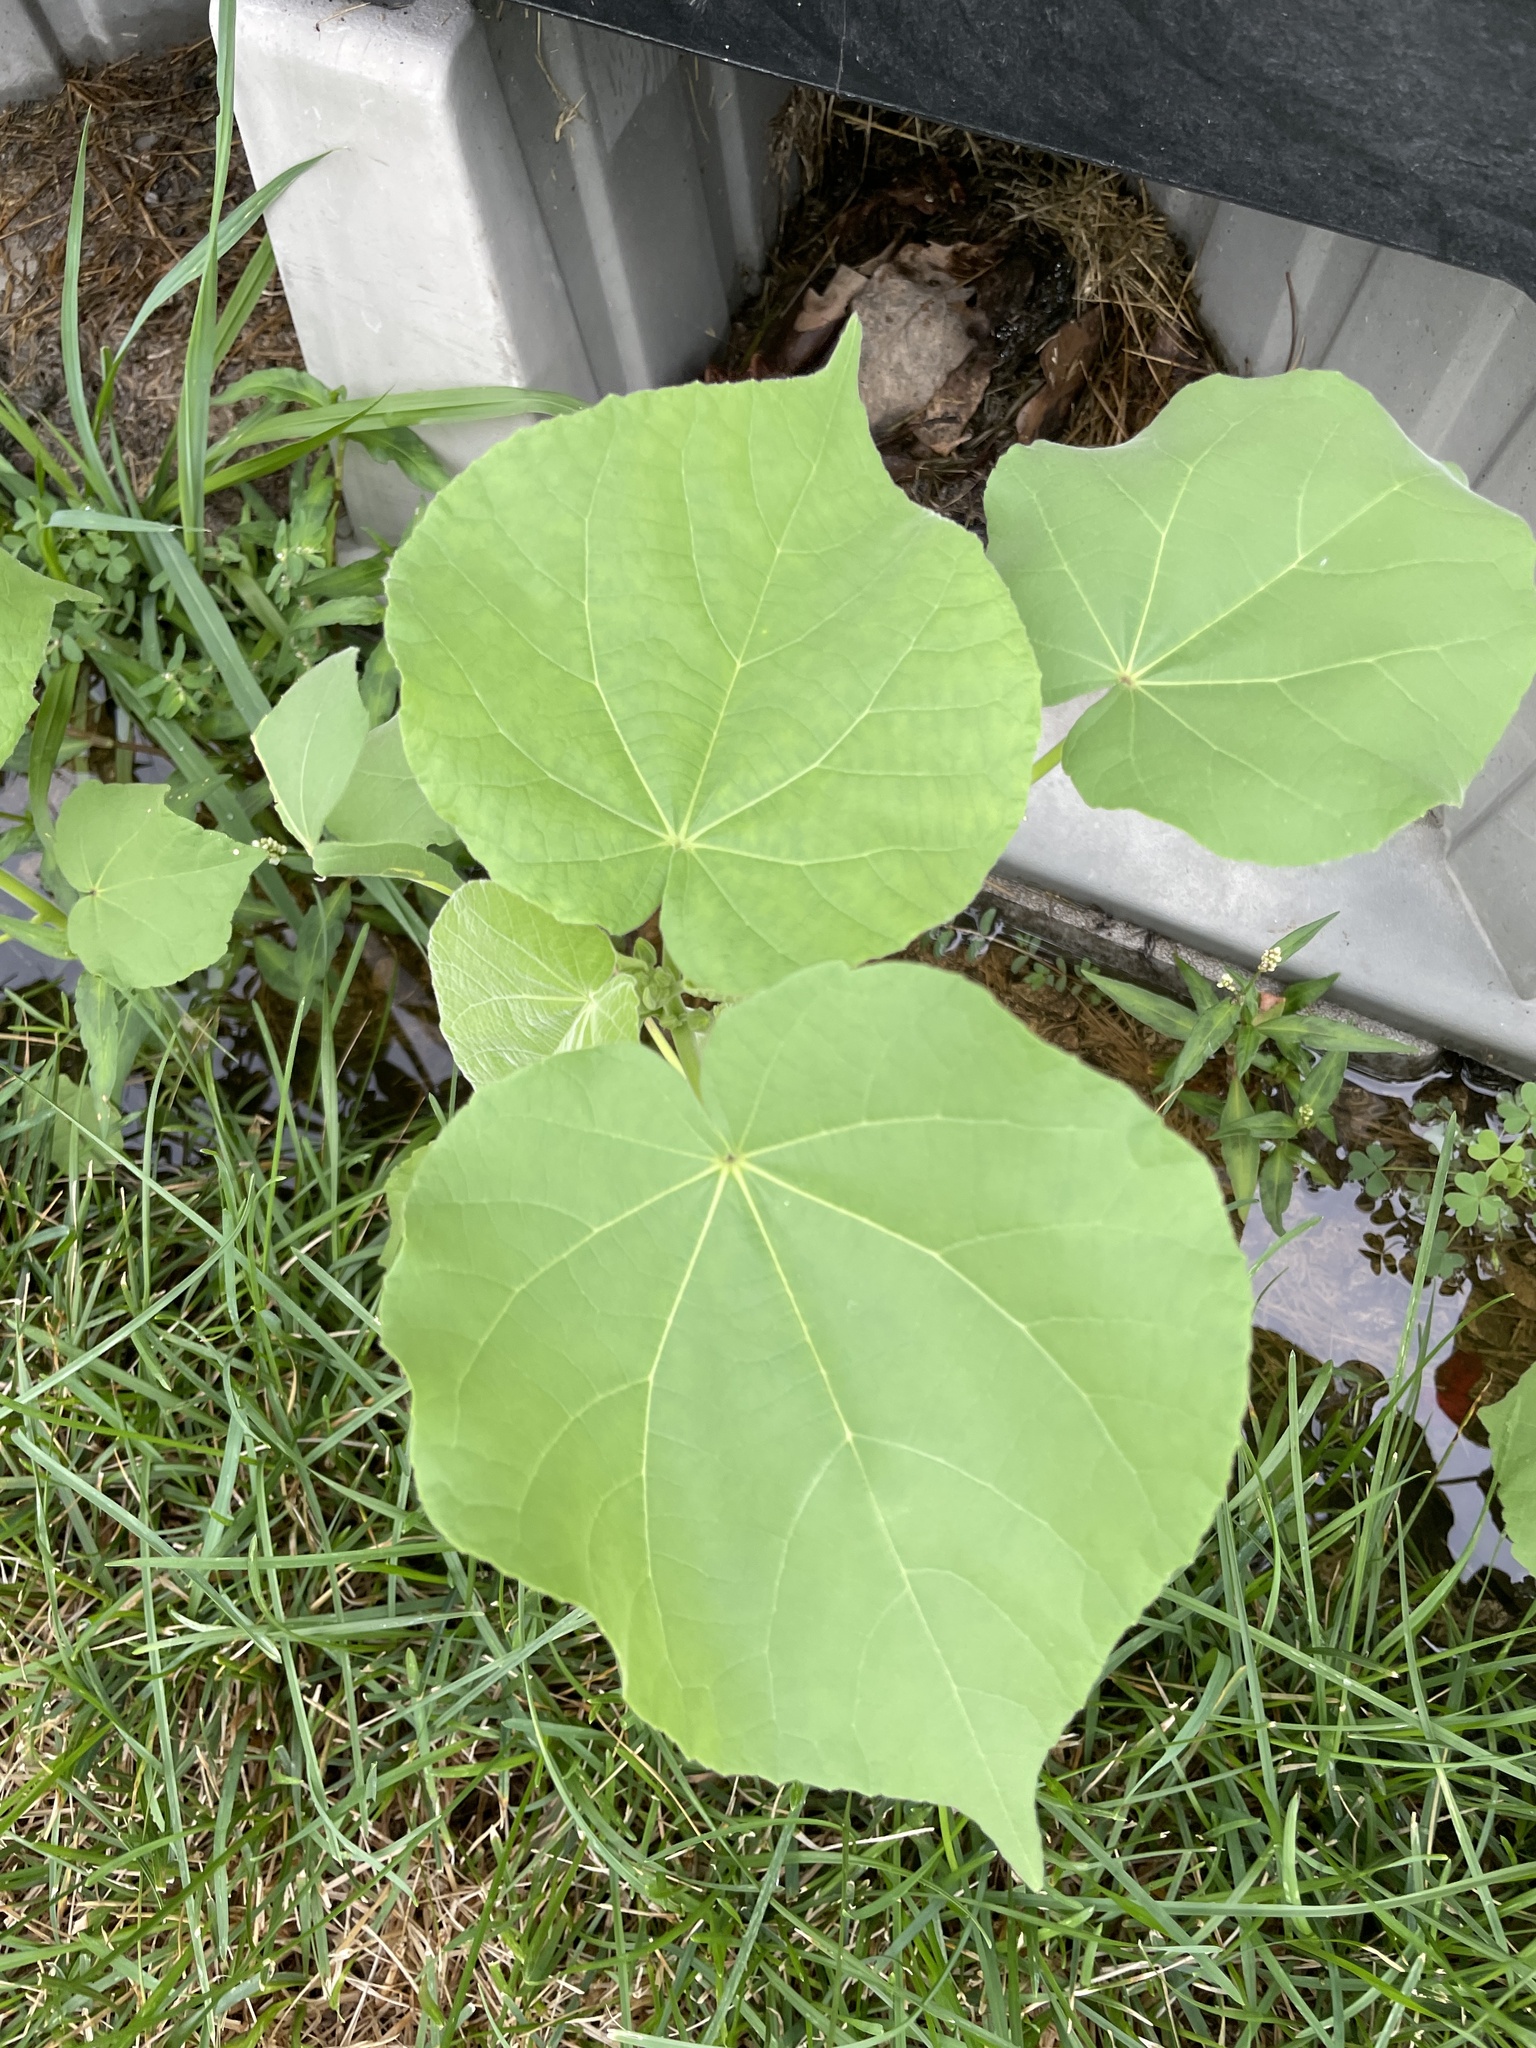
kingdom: Plantae
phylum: Tracheophyta
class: Magnoliopsida
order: Malvales
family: Malvaceae
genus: Abutilon
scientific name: Abutilon theophrasti
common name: Velvetleaf
